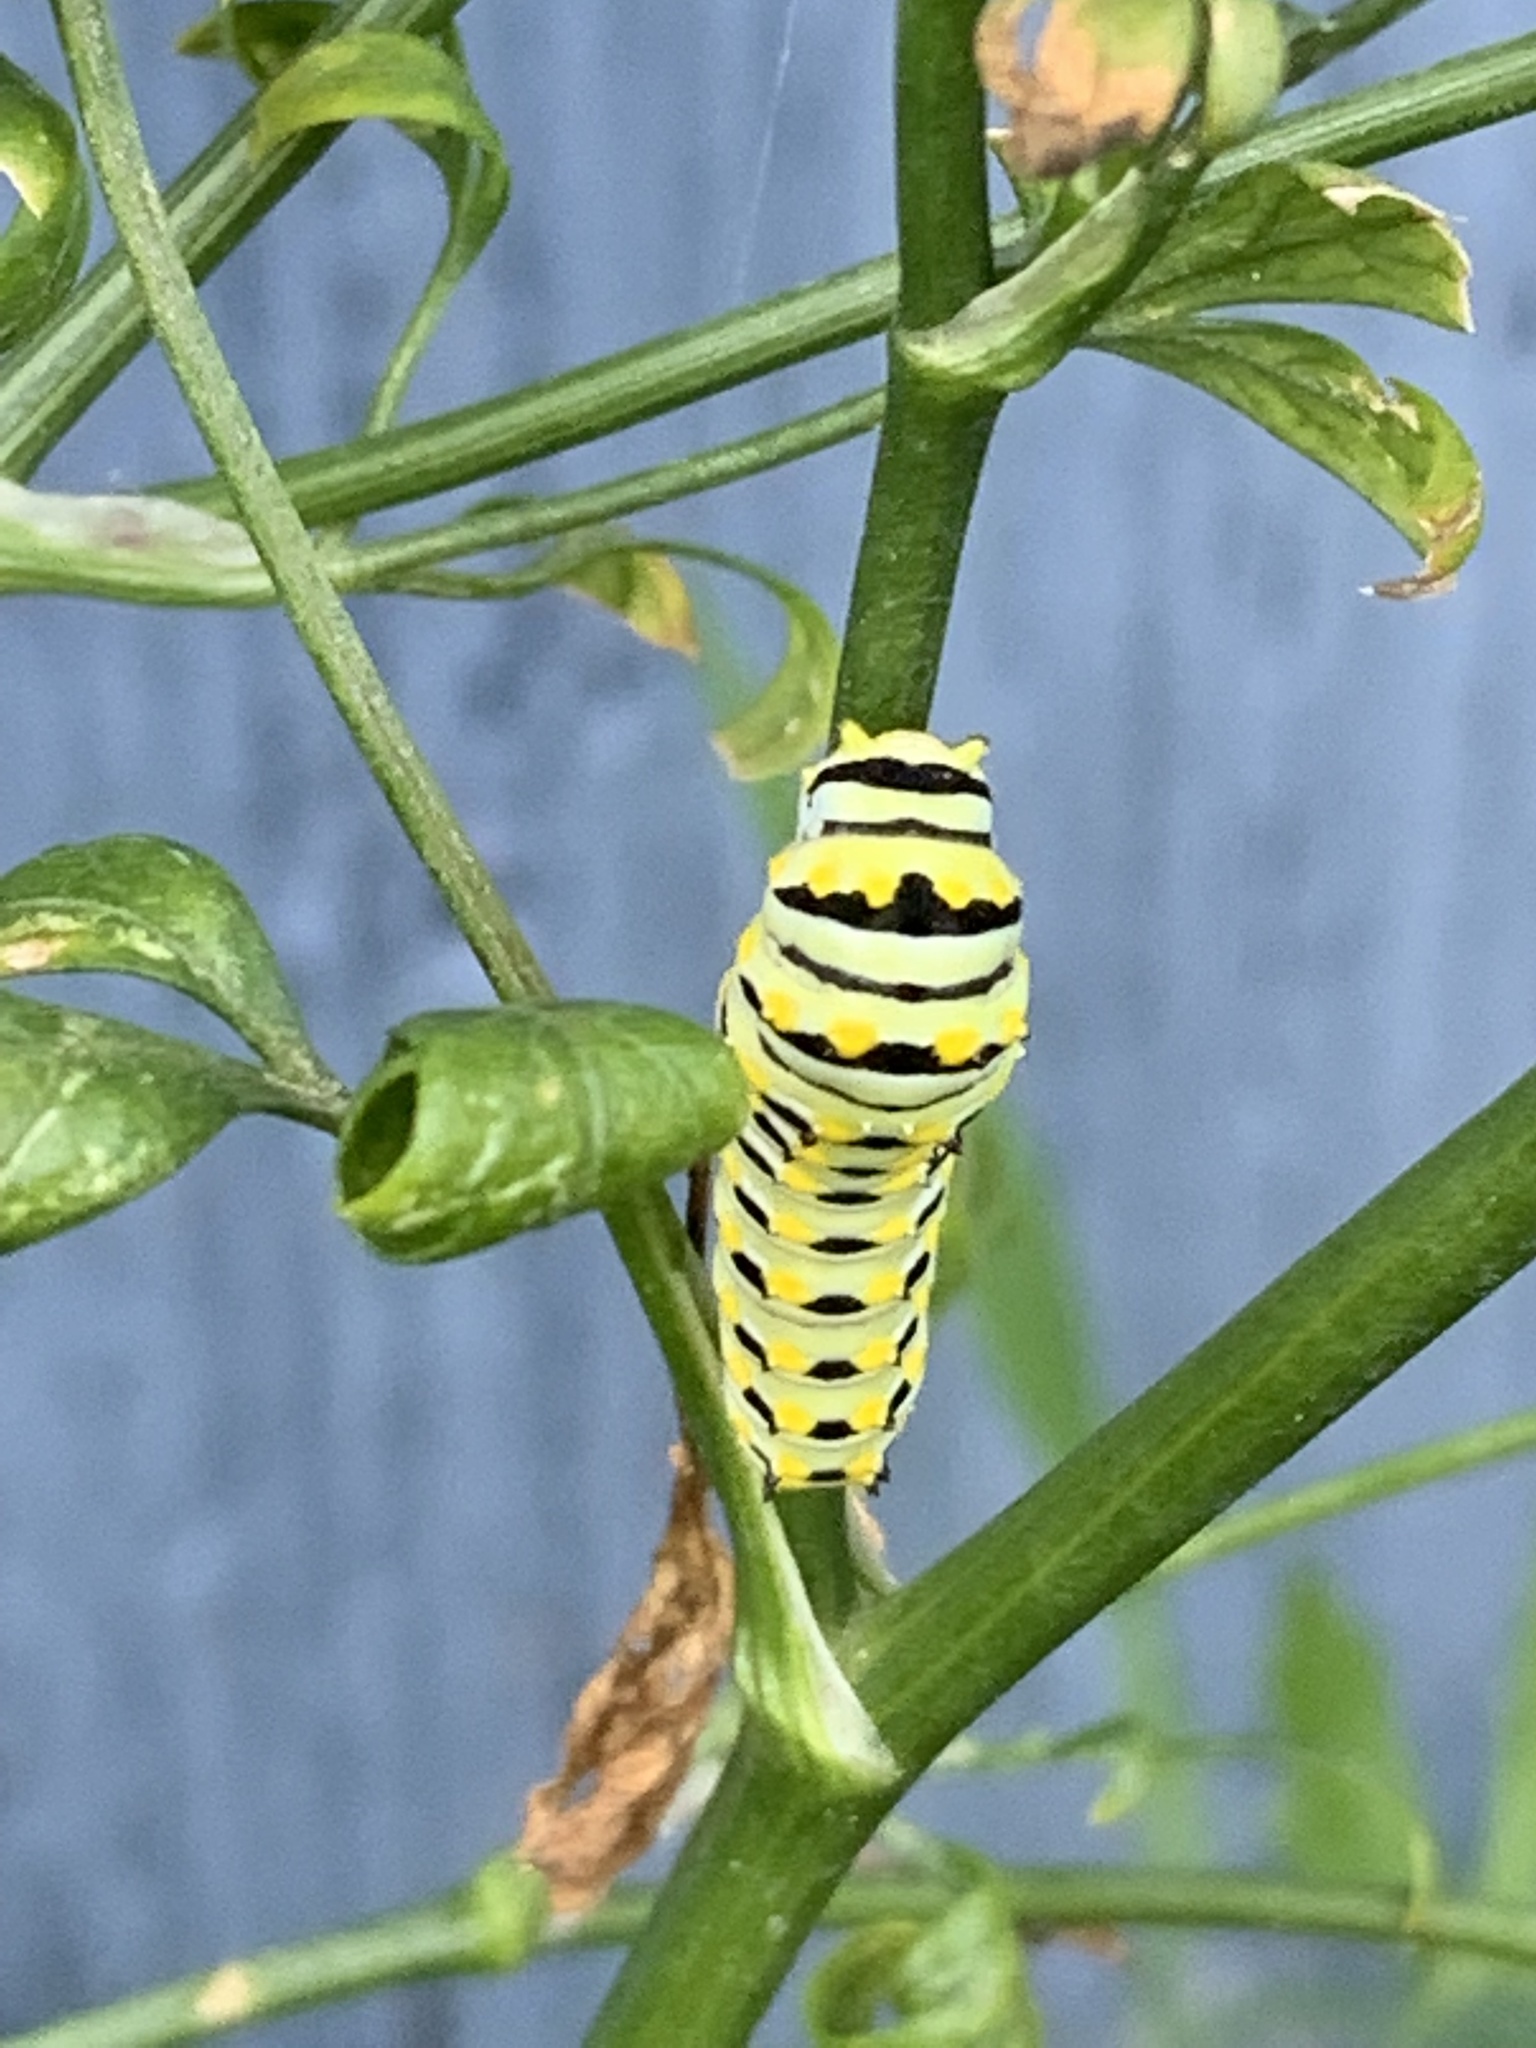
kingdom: Animalia
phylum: Arthropoda
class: Insecta
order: Lepidoptera
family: Papilionidae
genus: Papilio
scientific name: Papilio polyxenes
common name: Black swallowtail
